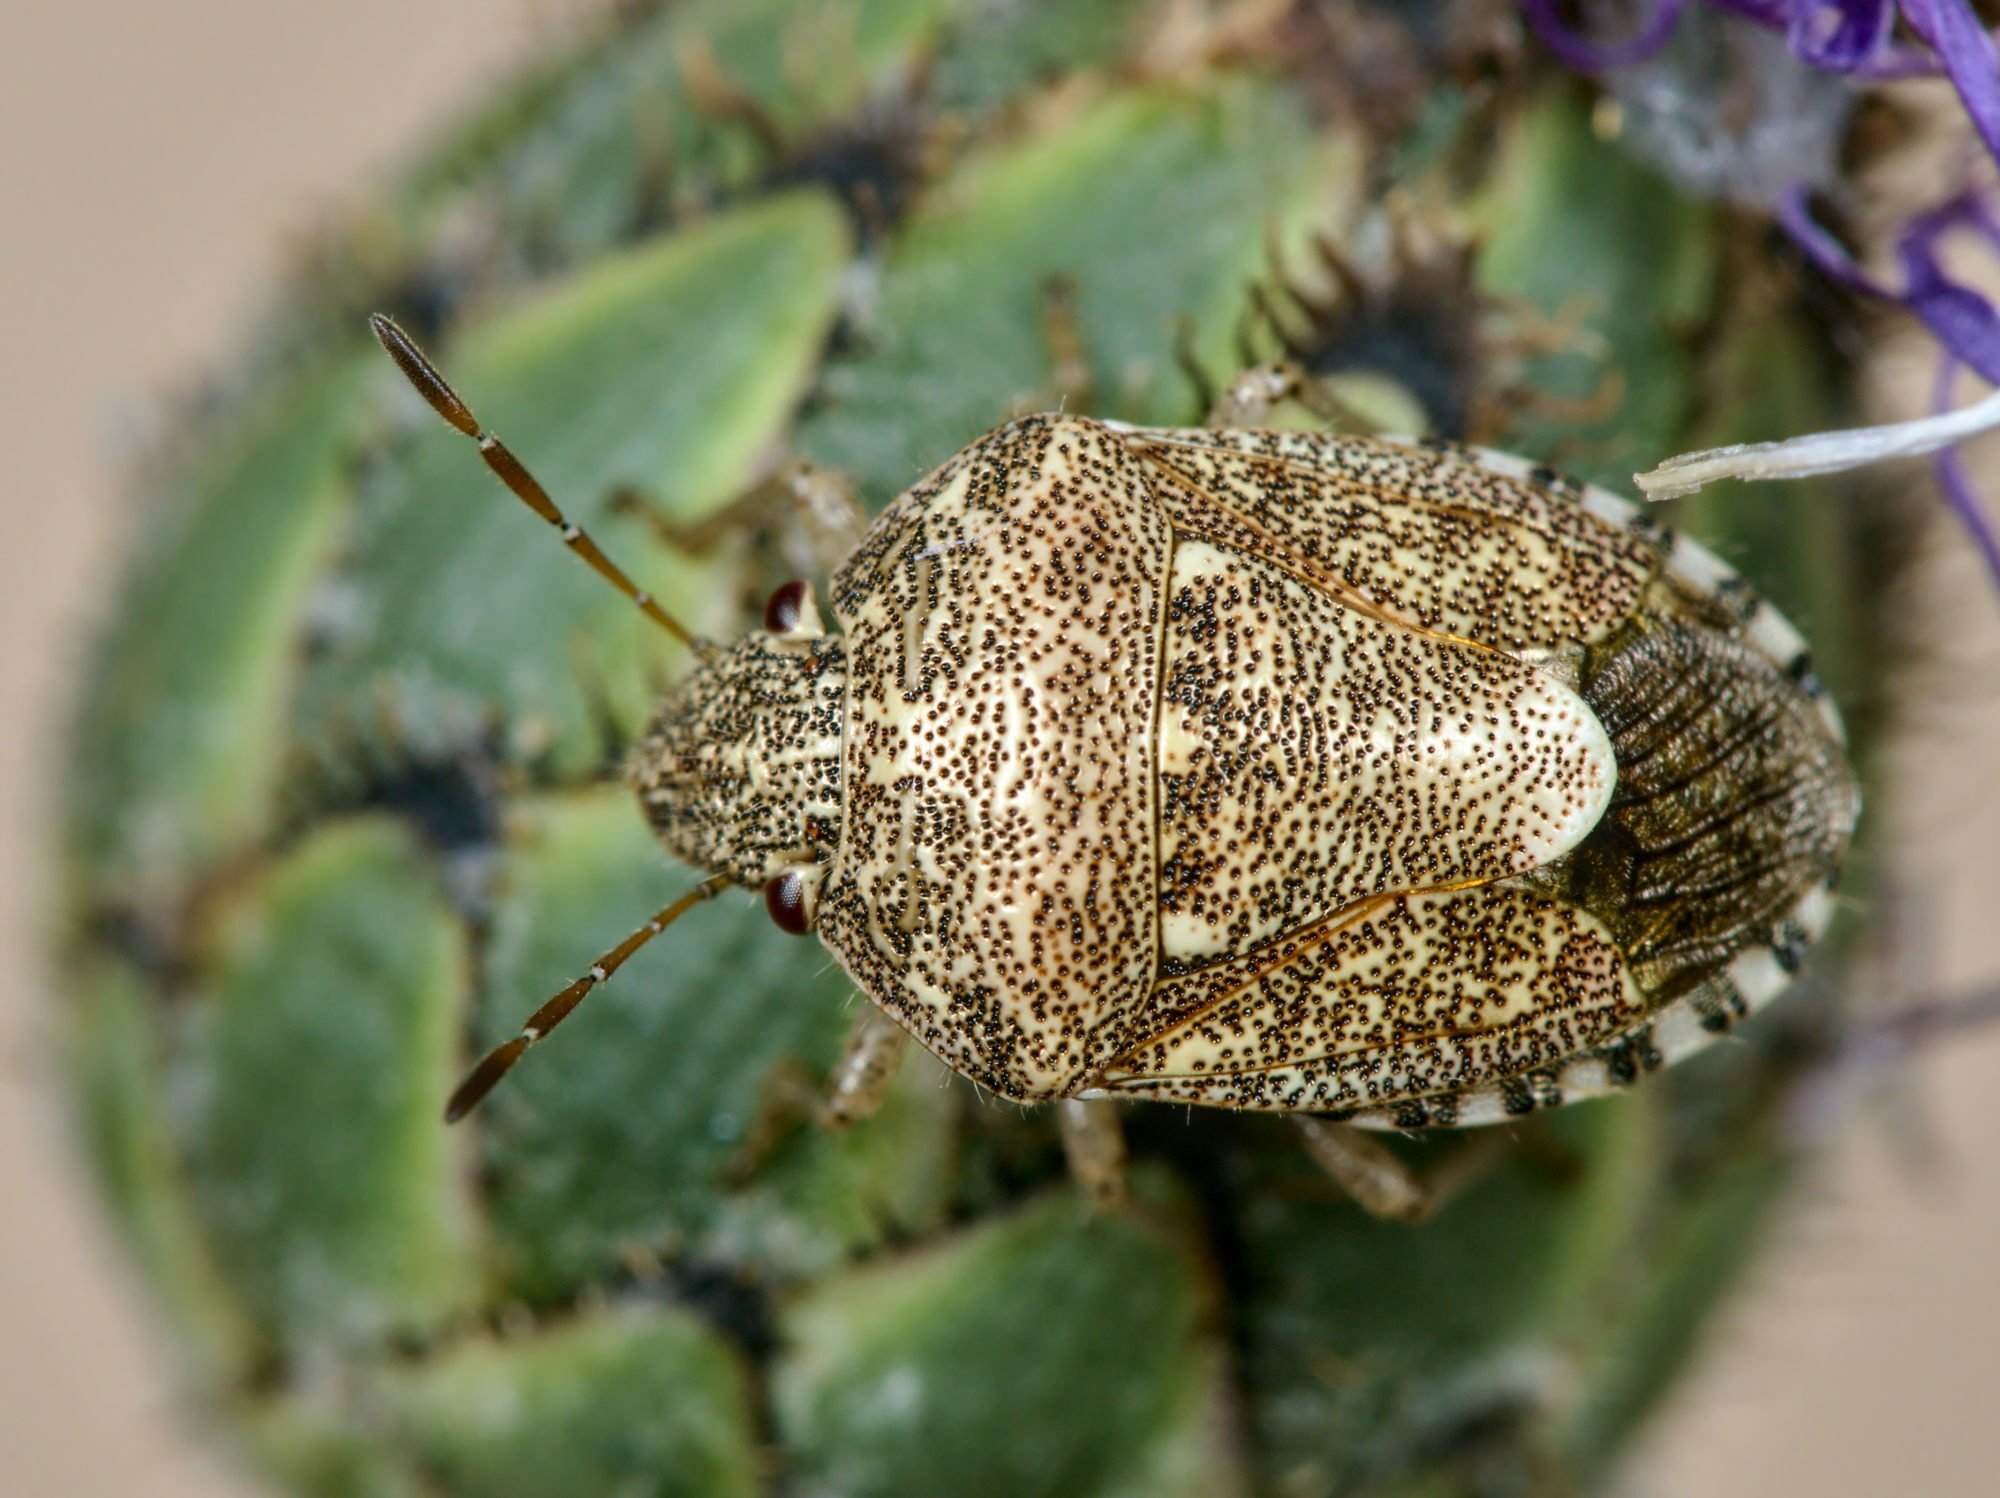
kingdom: Animalia
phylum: Arthropoda
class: Insecta
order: Hemiptera
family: Pentatomidae
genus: Staria
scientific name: Staria lunata
